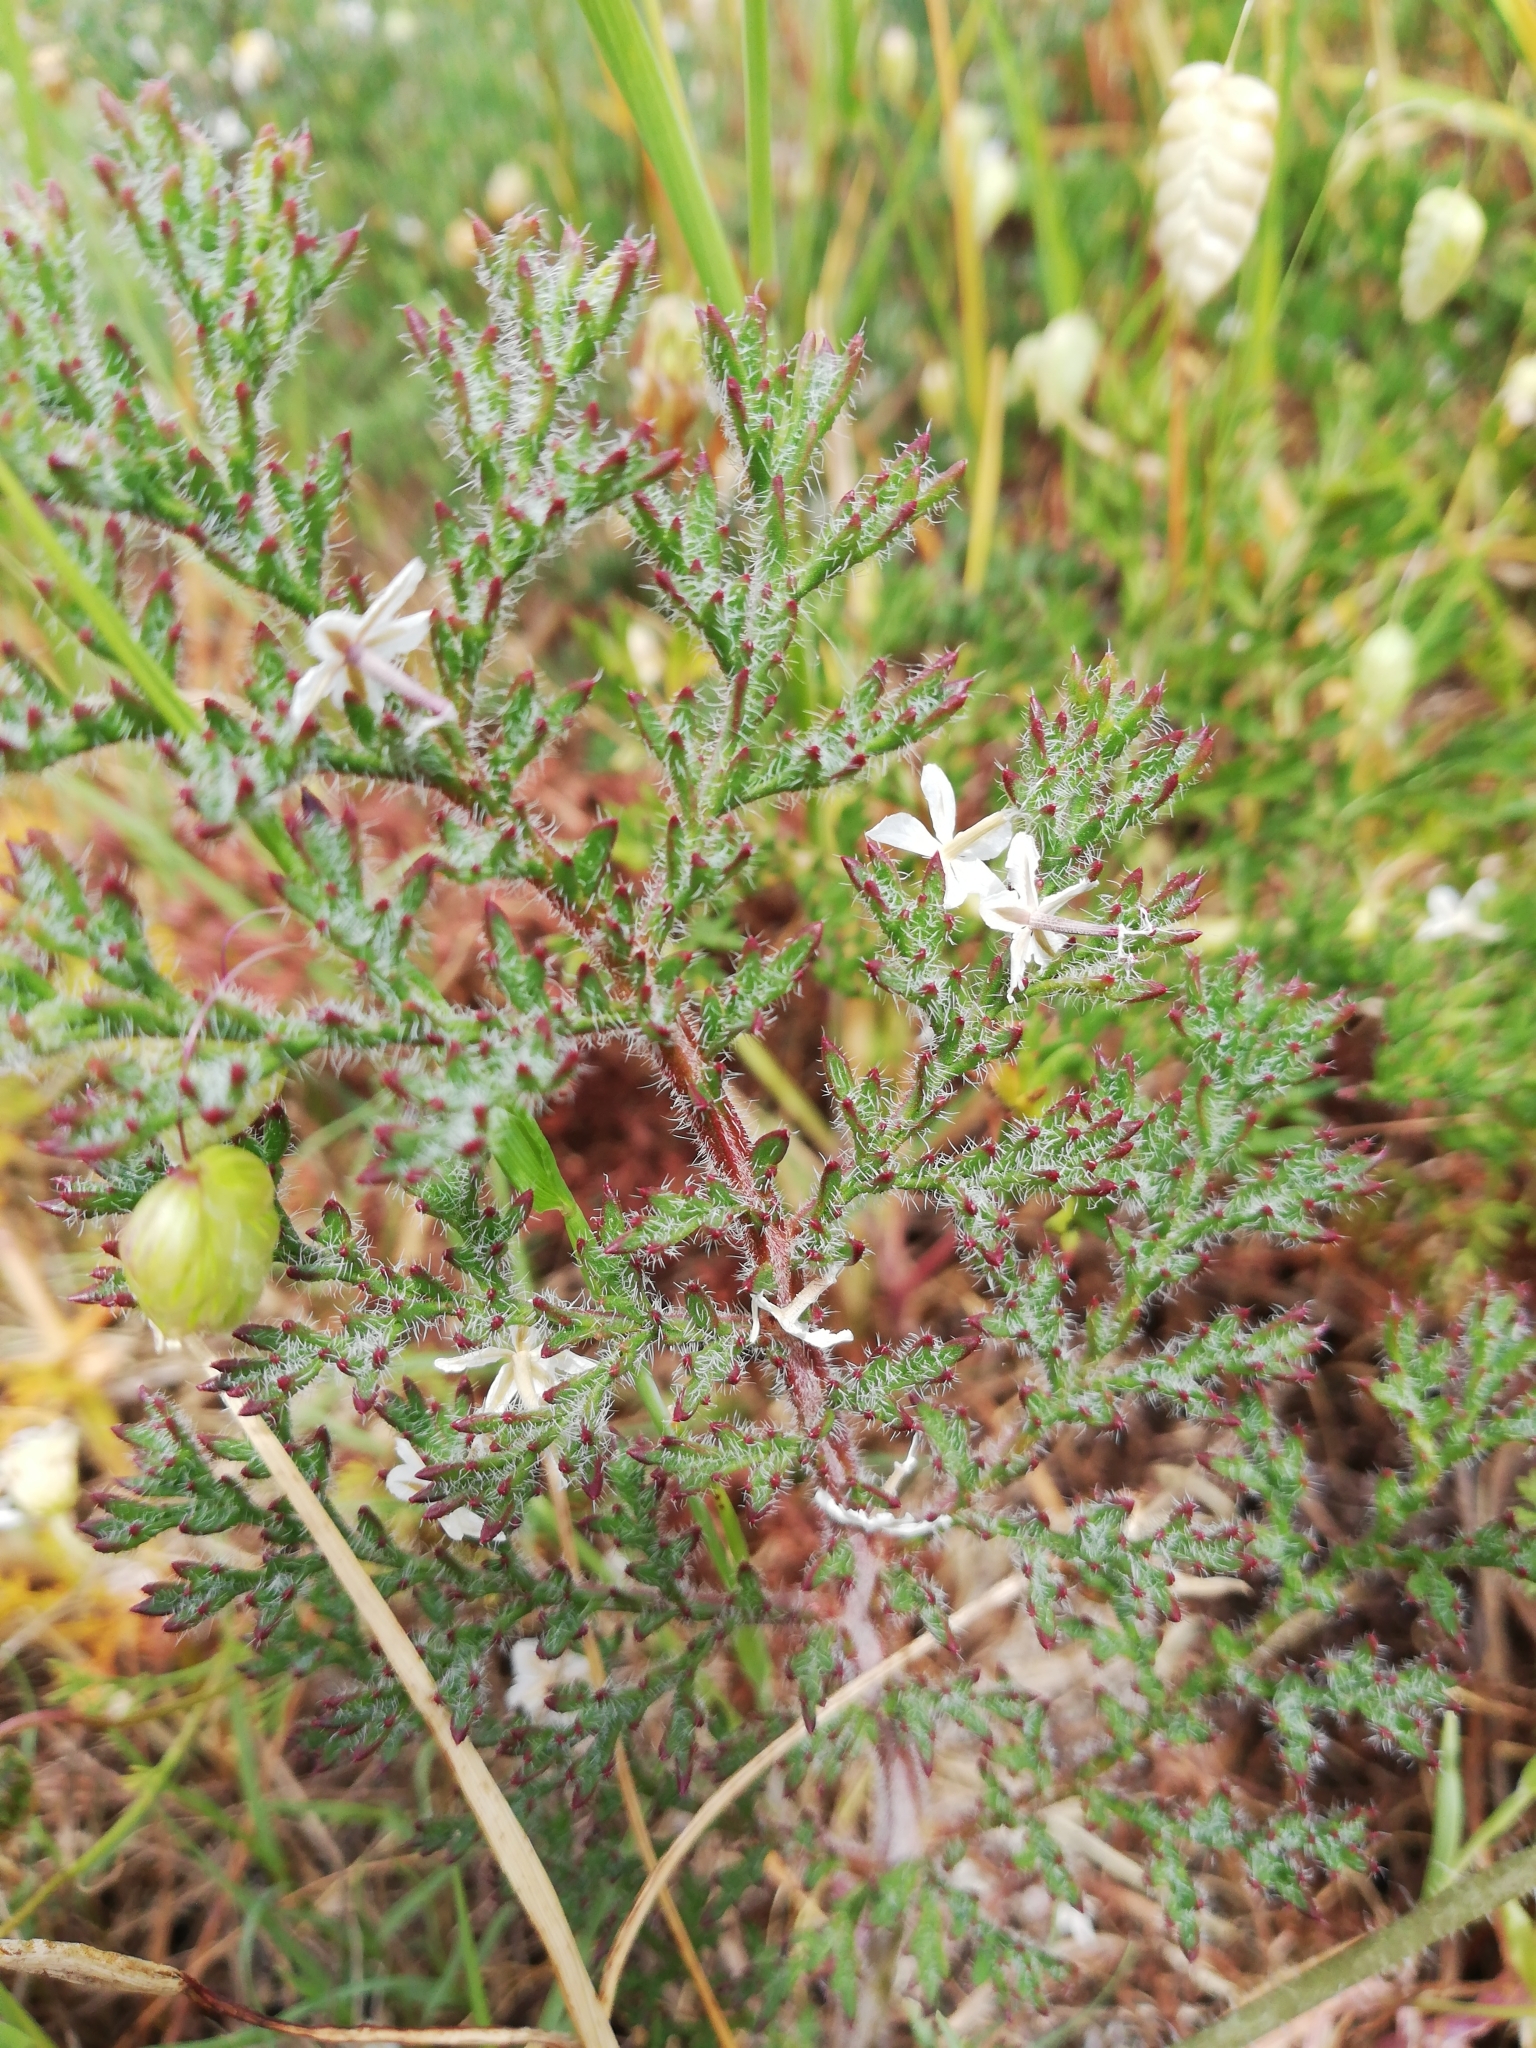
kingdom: Plantae
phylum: Tracheophyta
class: Magnoliopsida
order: Geraniales
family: Geraniaceae
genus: Pelargonium
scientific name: Pelargonium triste
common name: Night-scent pelargonium
